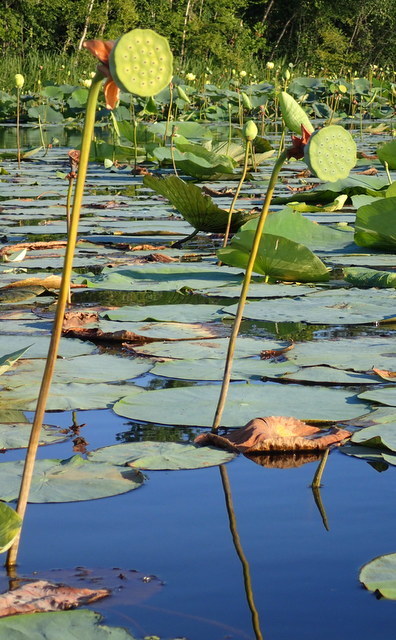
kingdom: Plantae
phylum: Tracheophyta
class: Magnoliopsida
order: Proteales
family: Nelumbonaceae
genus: Nelumbo
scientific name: Nelumbo lutea
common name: American lotus
